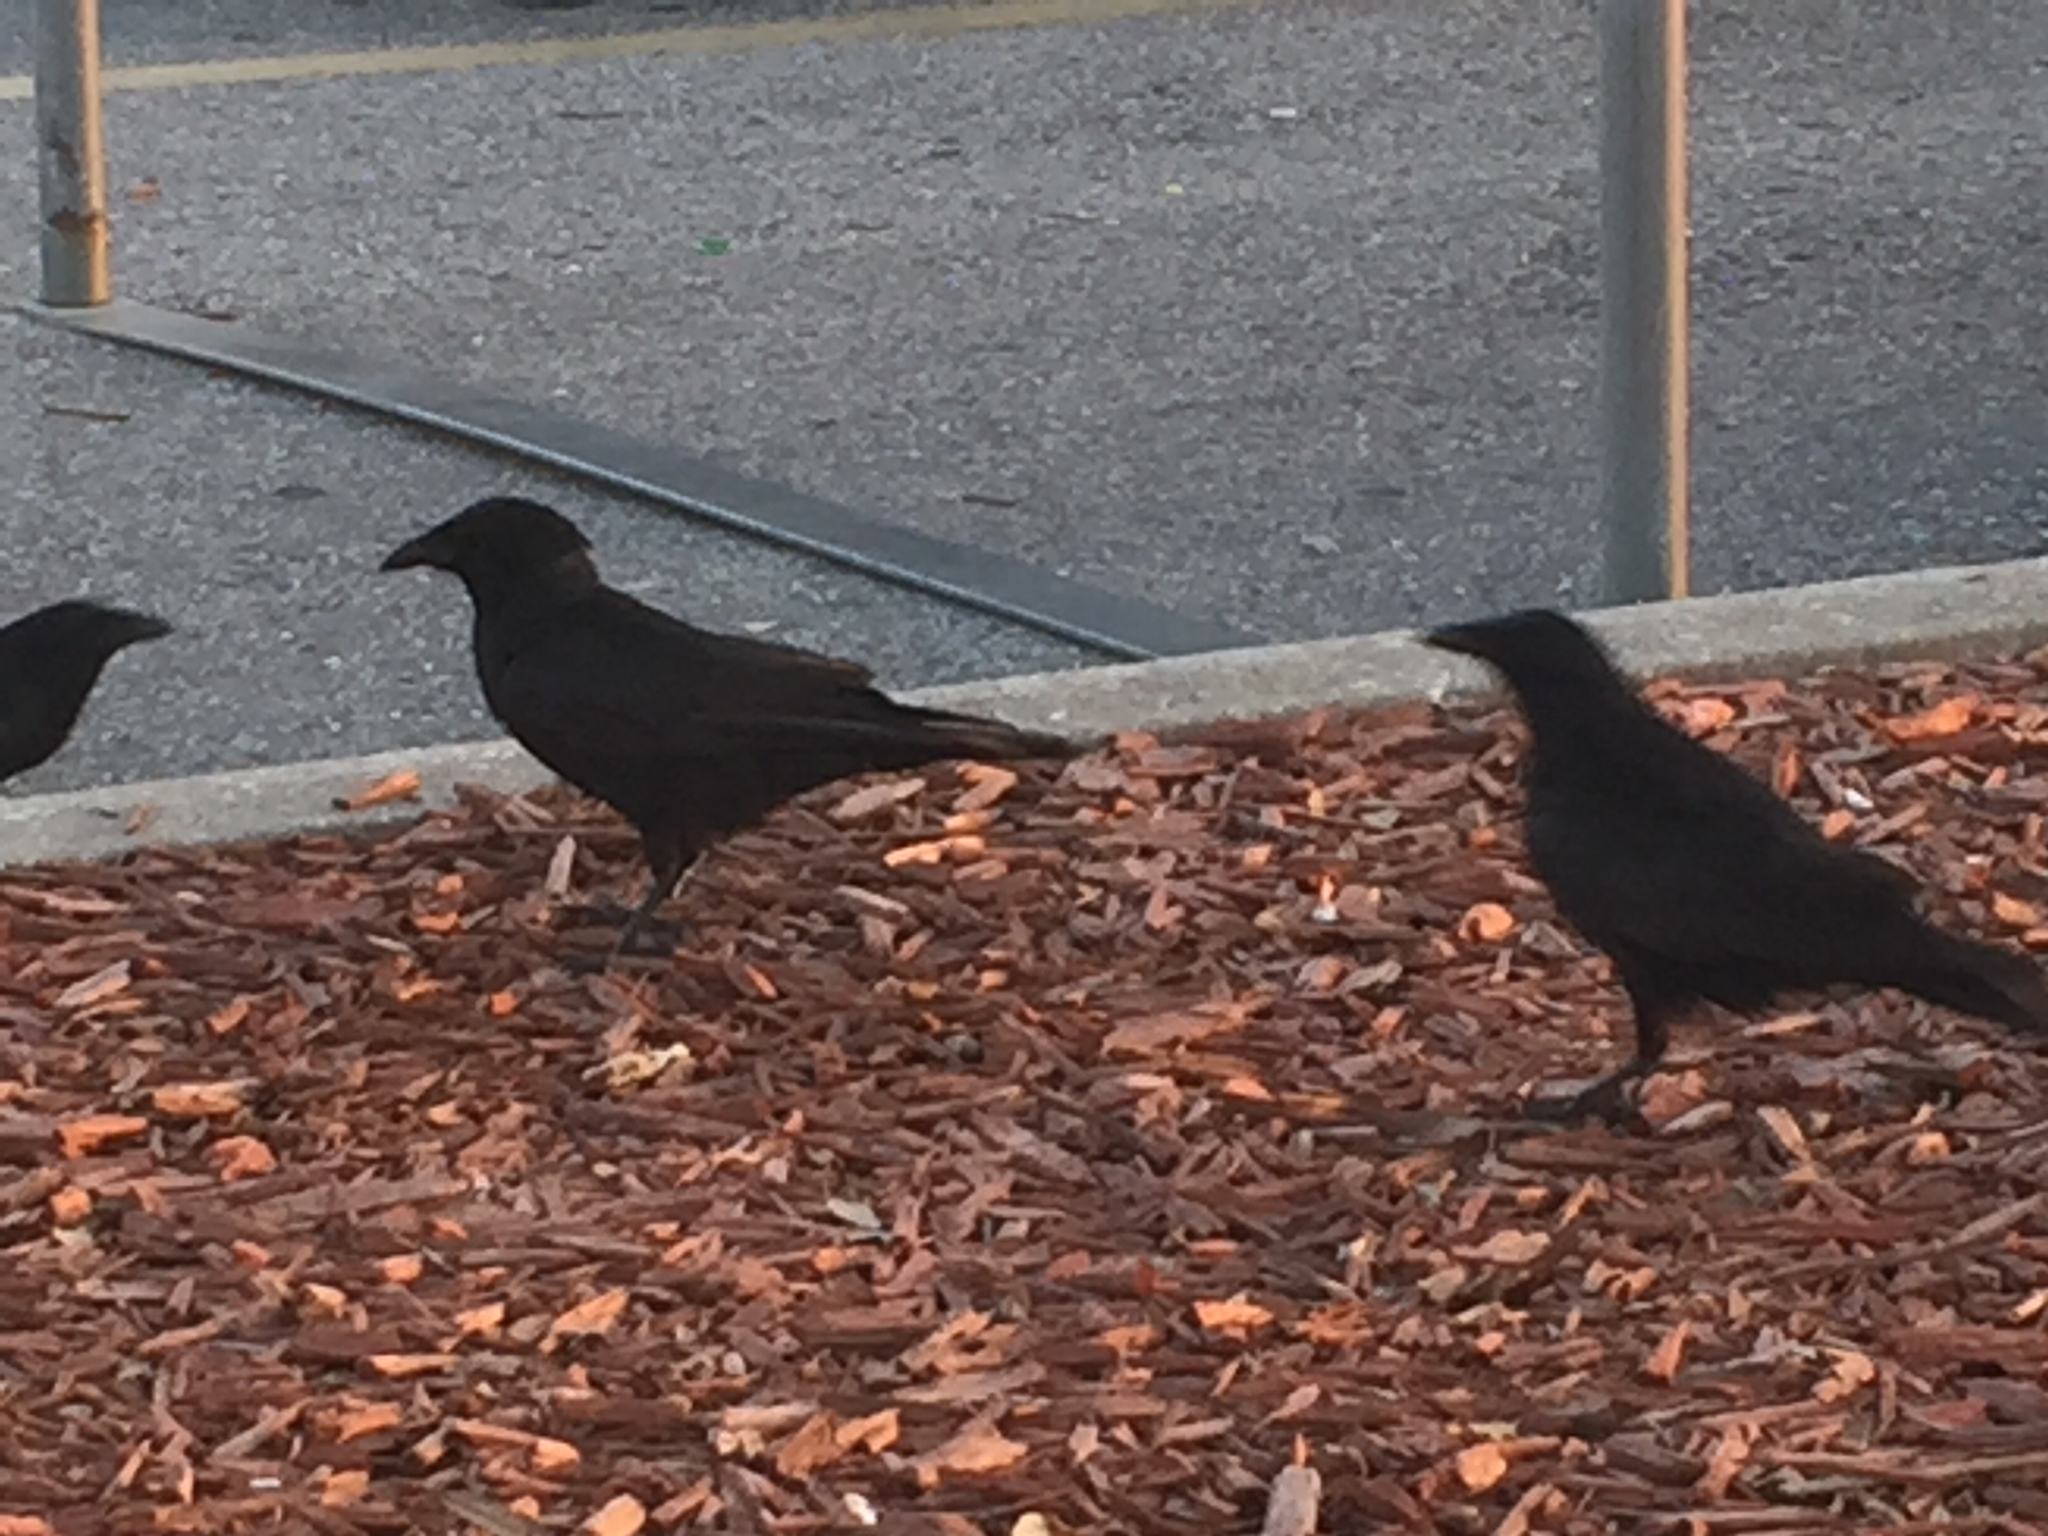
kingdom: Animalia
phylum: Chordata
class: Aves
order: Passeriformes
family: Corvidae
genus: Corvus
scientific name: Corvus
